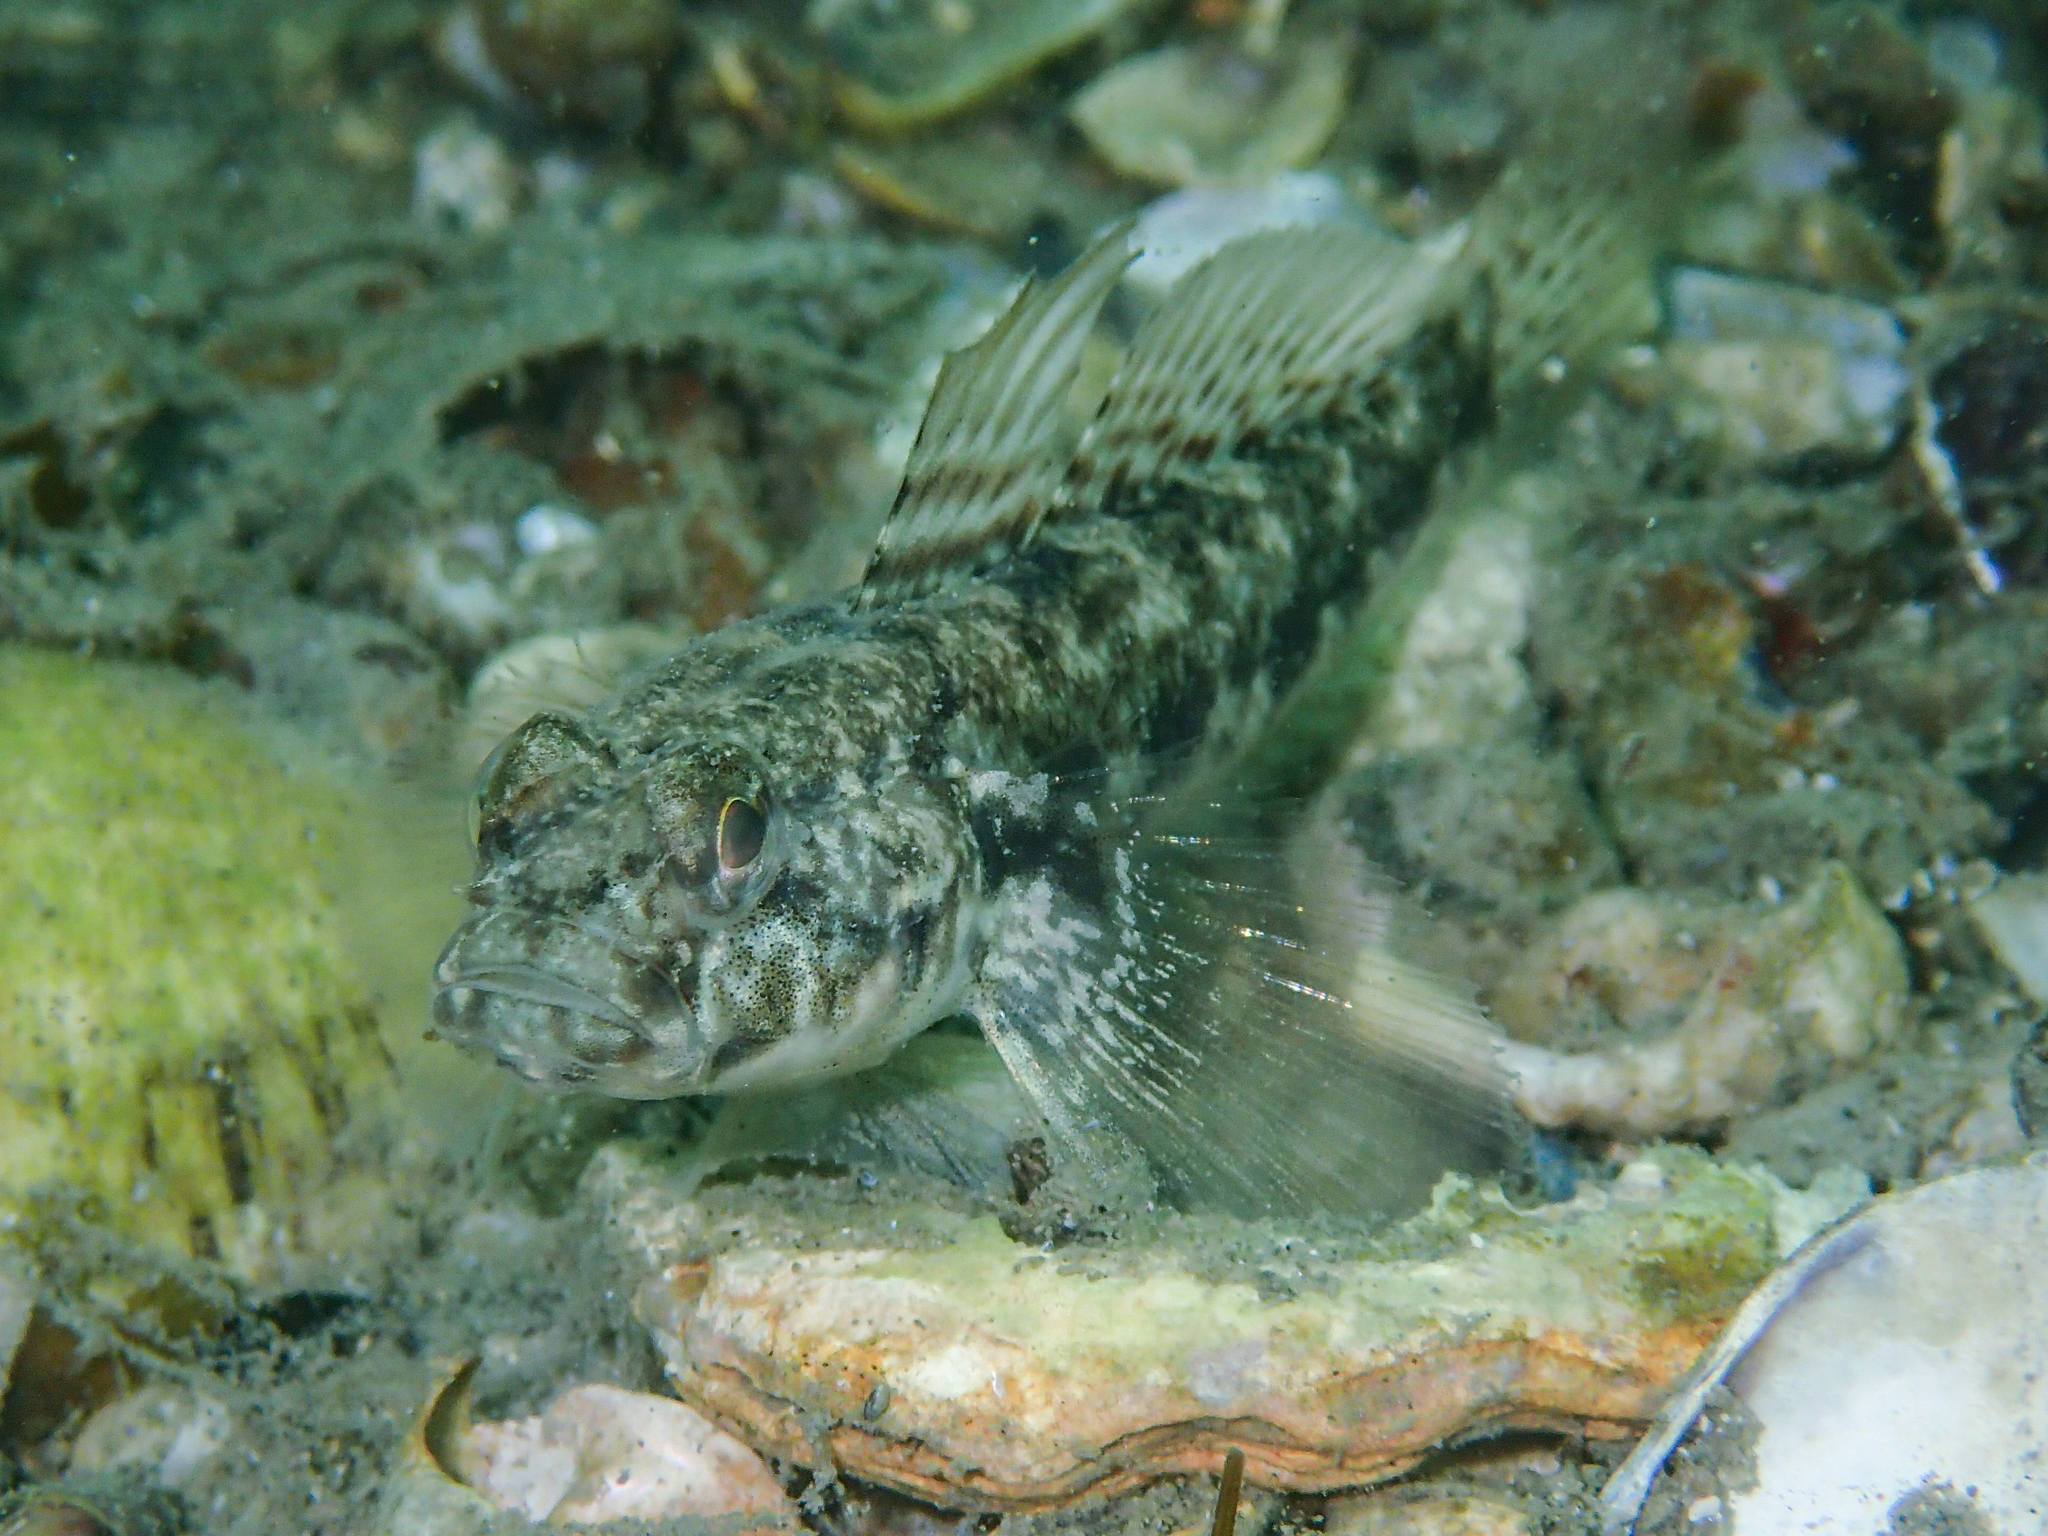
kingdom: Animalia
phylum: Chordata
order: Perciformes
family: Gobiidae
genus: Gobius
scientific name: Gobius niger
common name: Black goby
